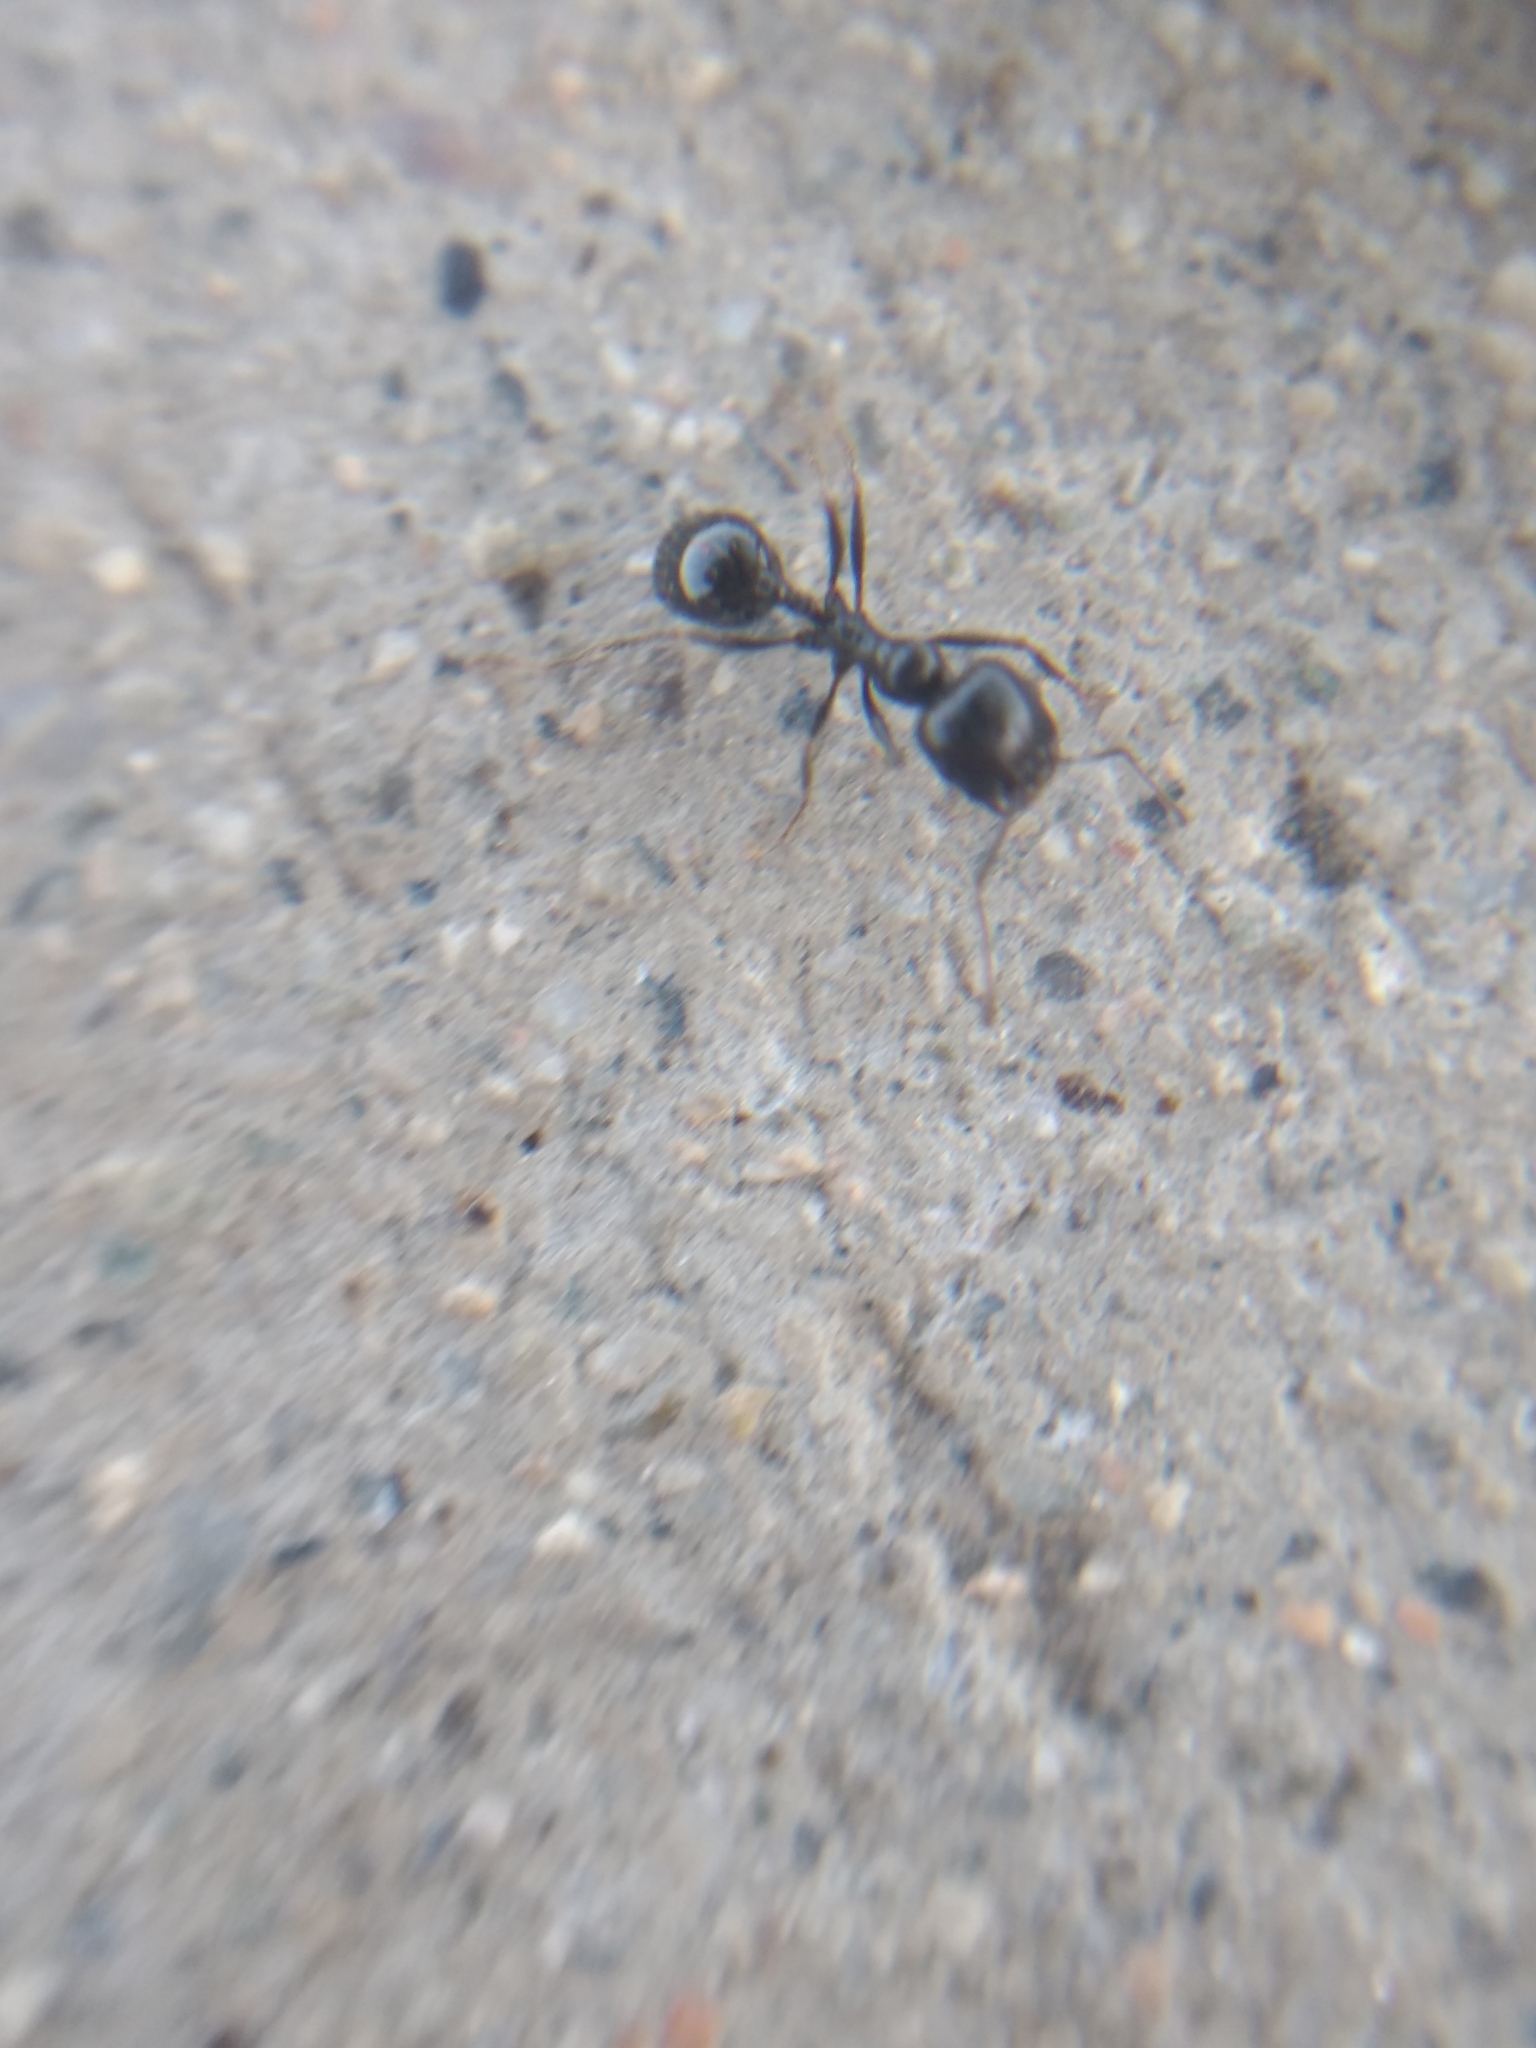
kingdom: Animalia
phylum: Arthropoda
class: Insecta
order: Hymenoptera
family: Formicidae
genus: Messor
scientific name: Messor pergandei
